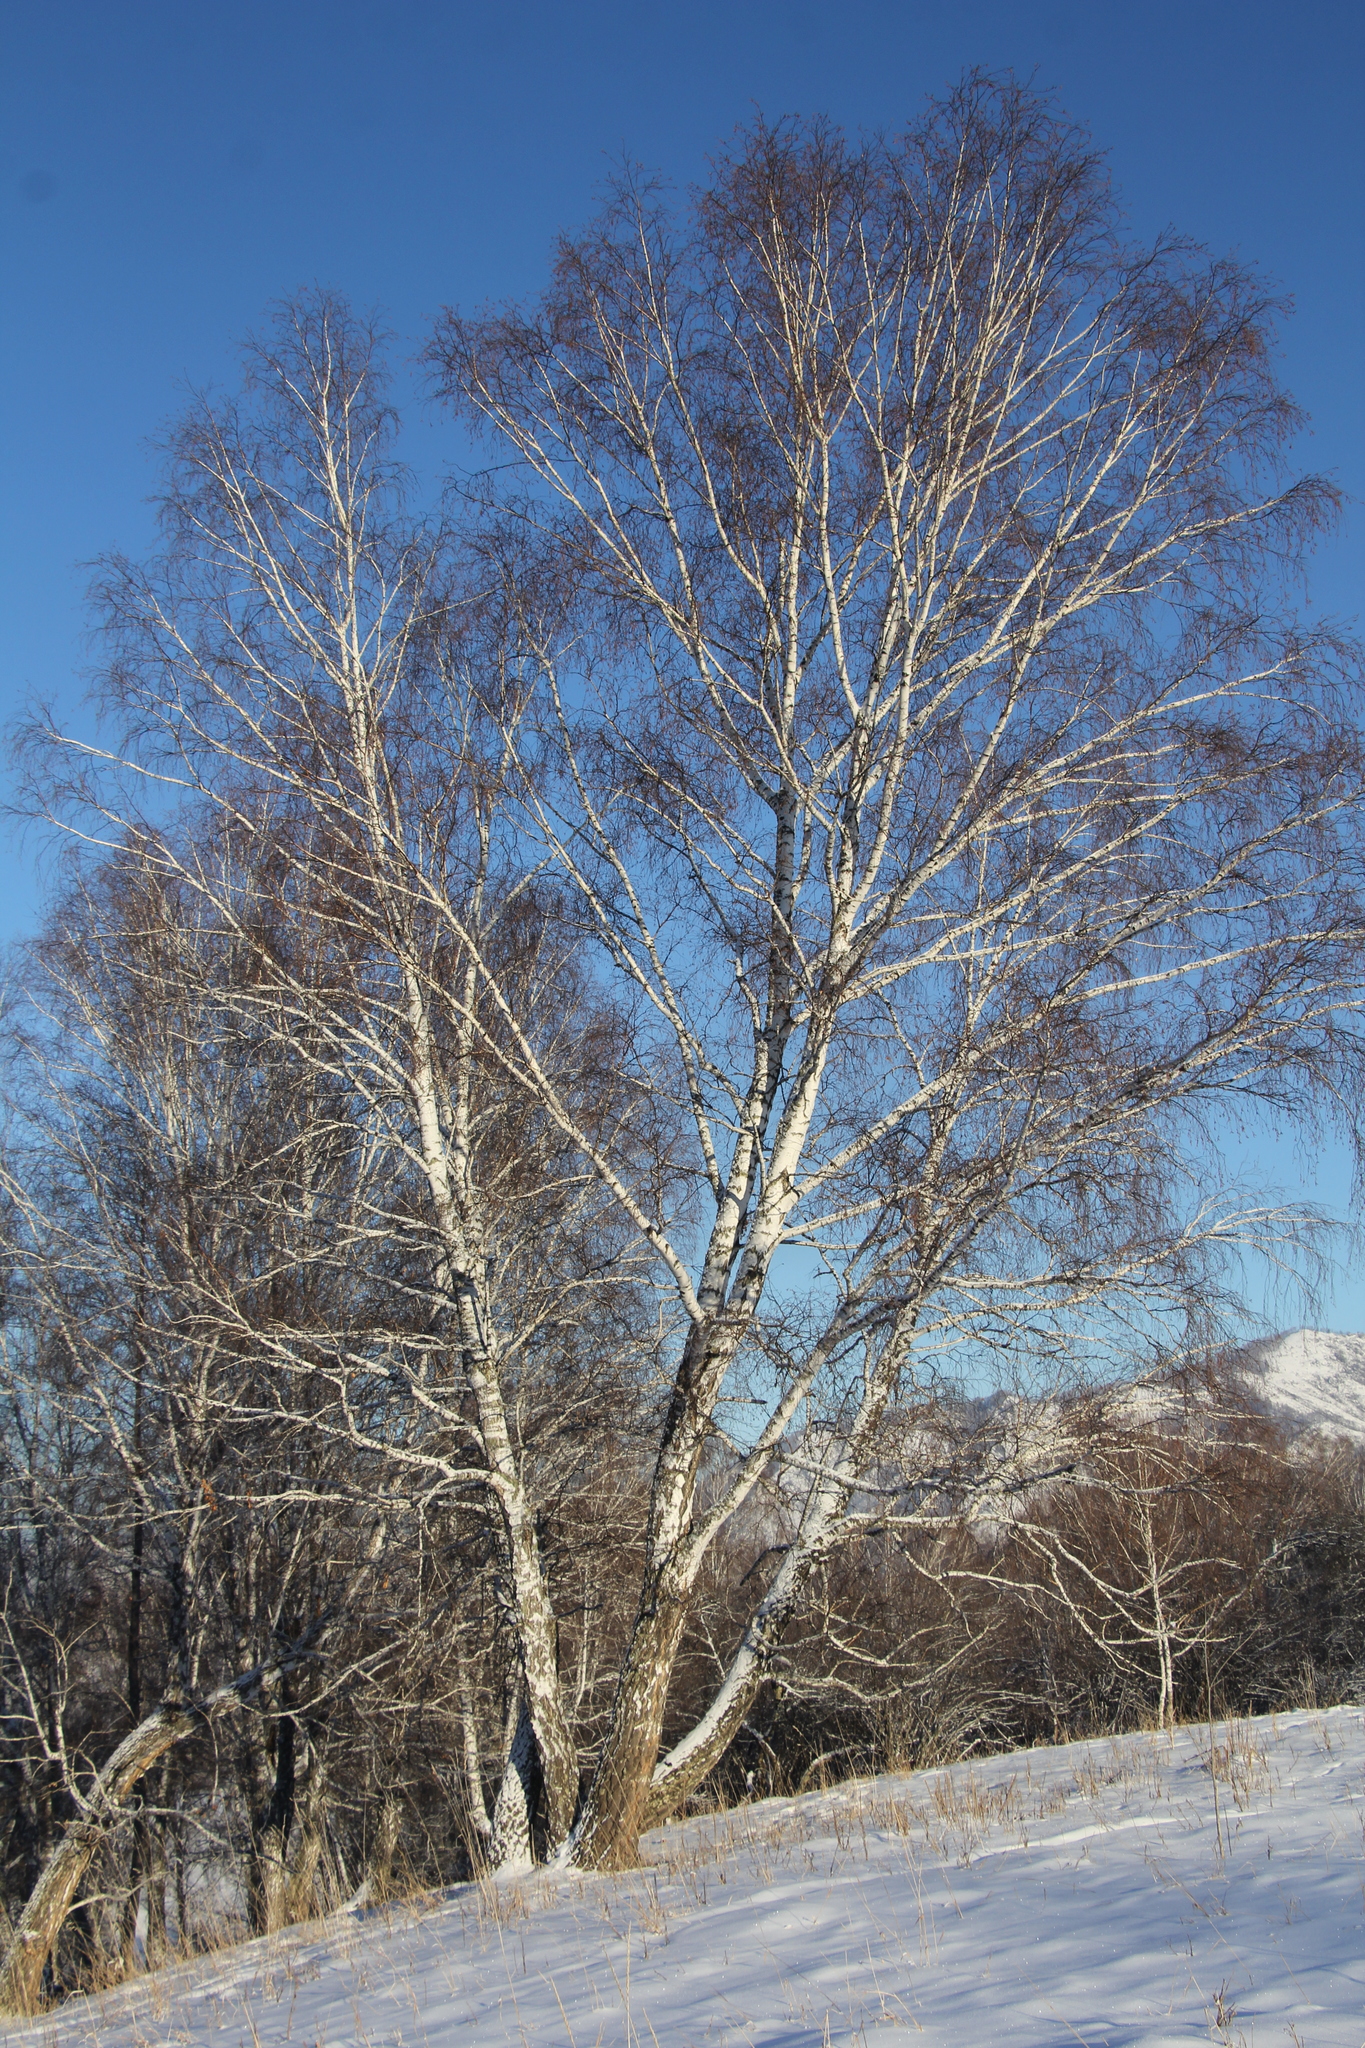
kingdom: Plantae
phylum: Tracheophyta
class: Magnoliopsida
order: Fagales
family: Betulaceae
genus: Betula
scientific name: Betula pendula
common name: Silver birch
